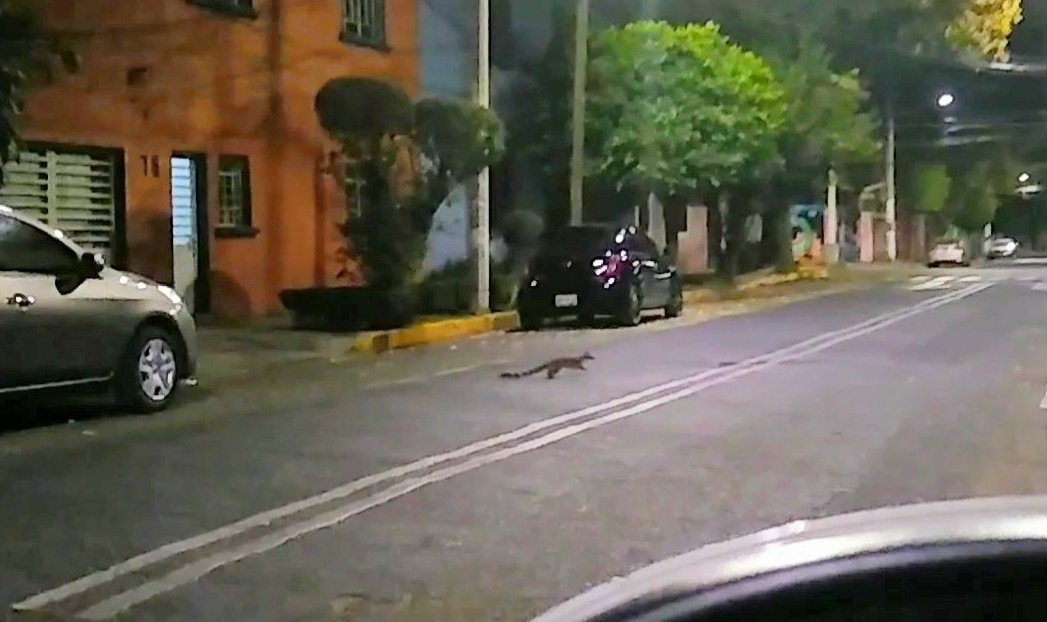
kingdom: Animalia
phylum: Chordata
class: Mammalia
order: Carnivora
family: Procyonidae
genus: Bassariscus
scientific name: Bassariscus astutus
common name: Ringtail
